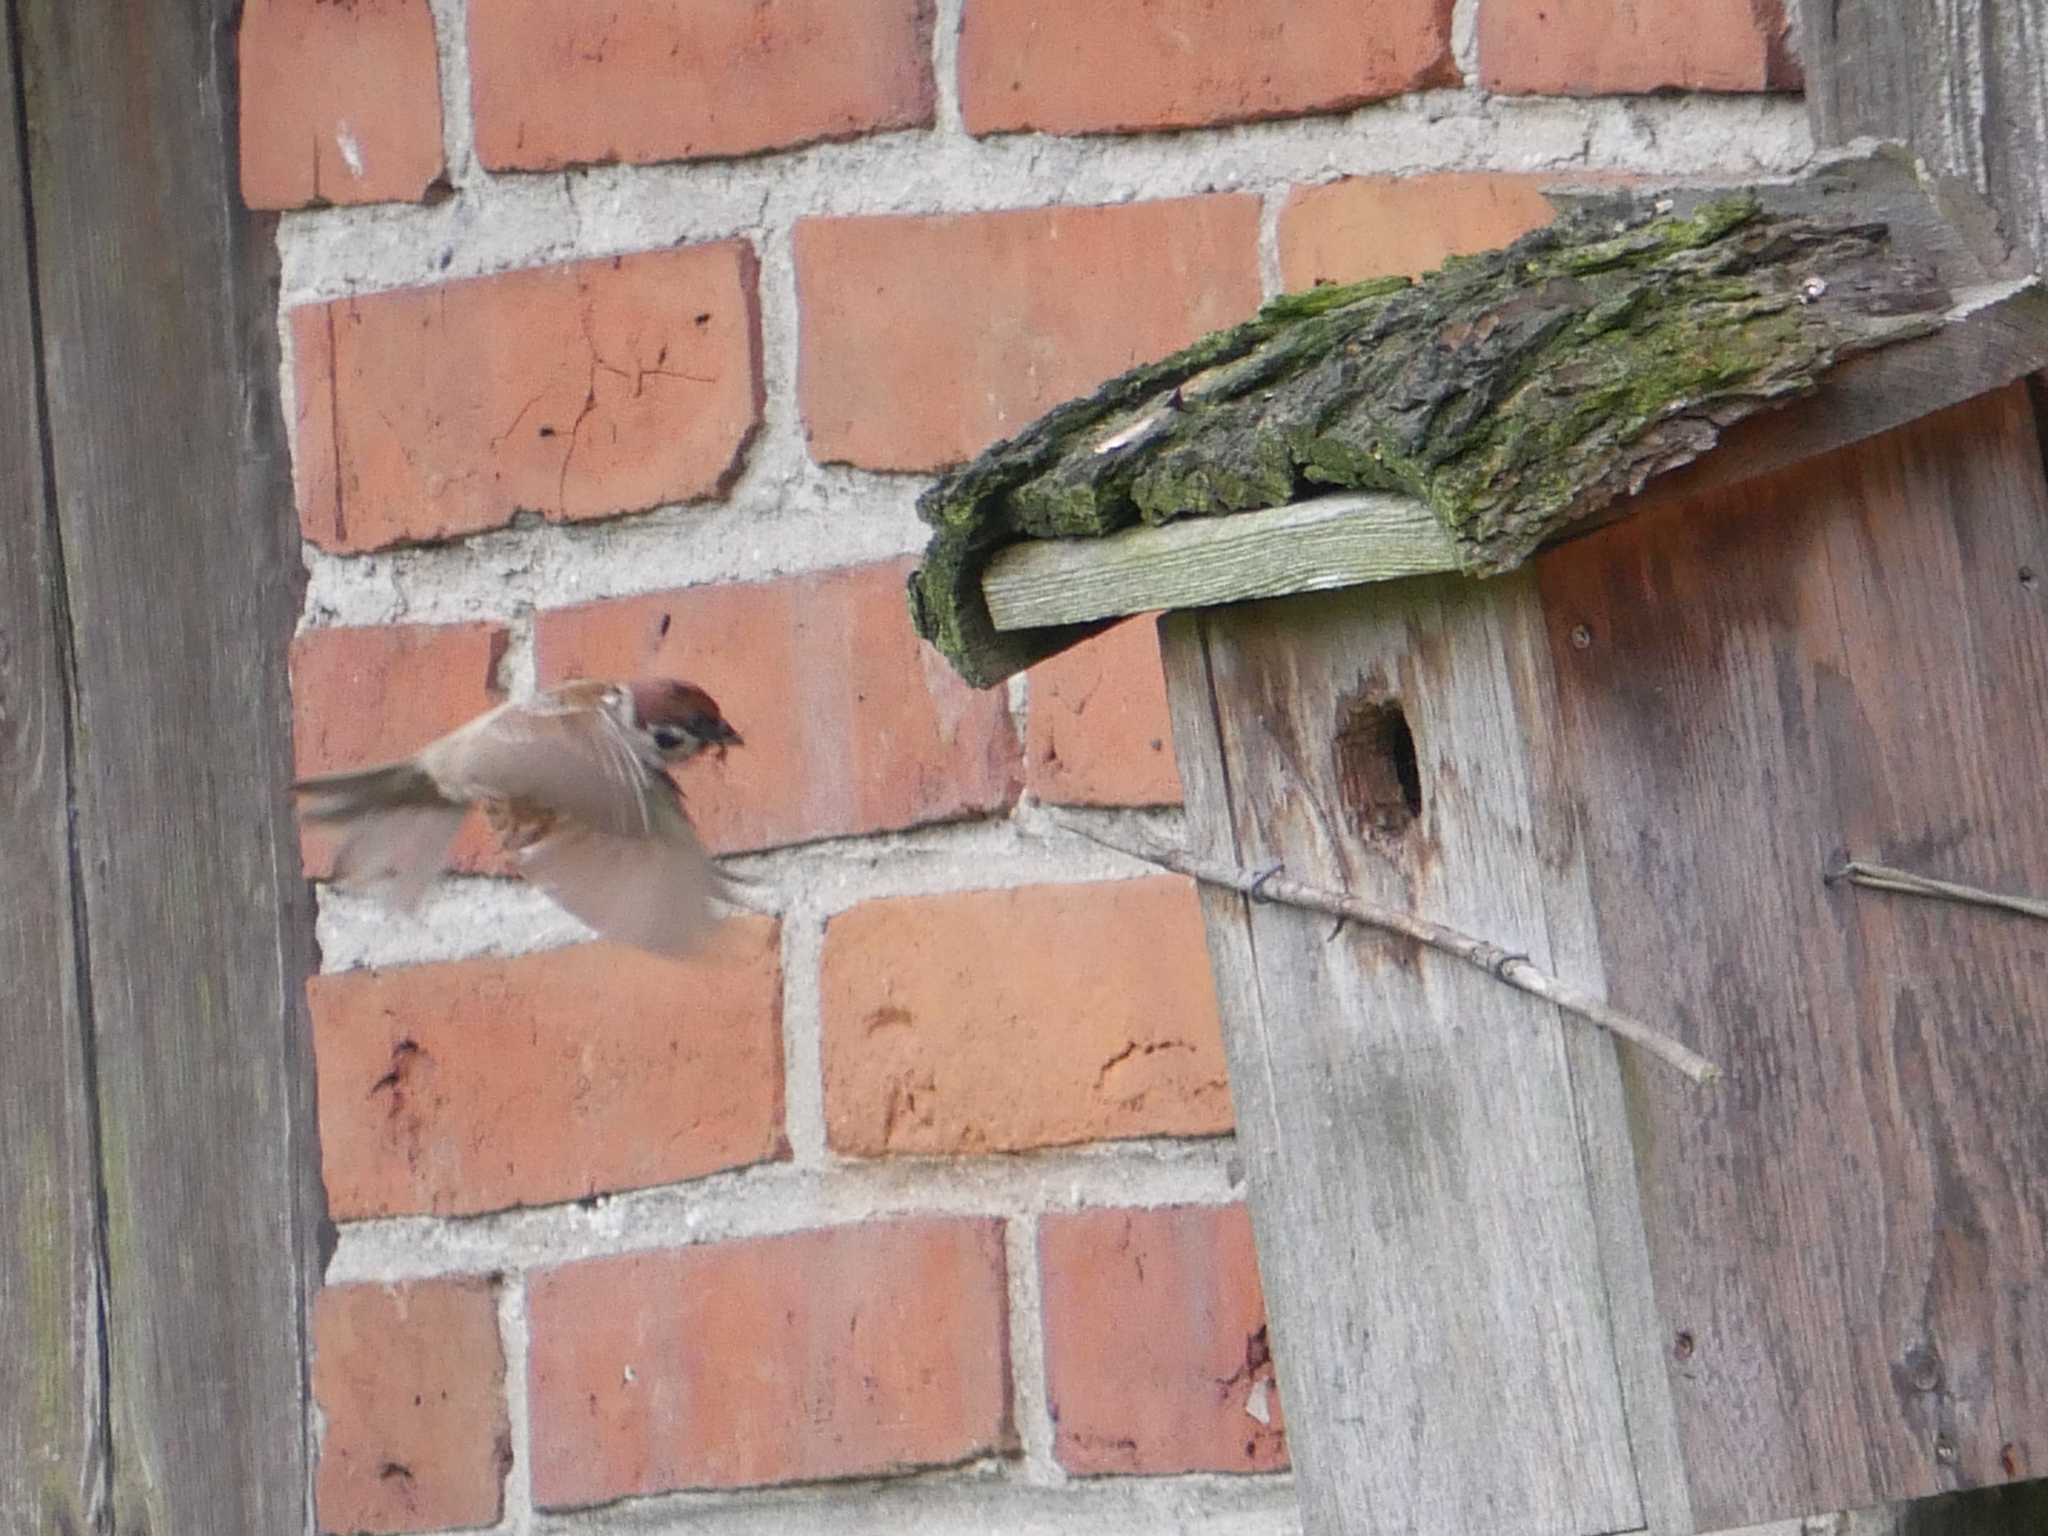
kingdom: Animalia
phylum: Chordata
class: Aves
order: Passeriformes
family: Passeridae
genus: Passer
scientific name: Passer montanus
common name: Eurasian tree sparrow
